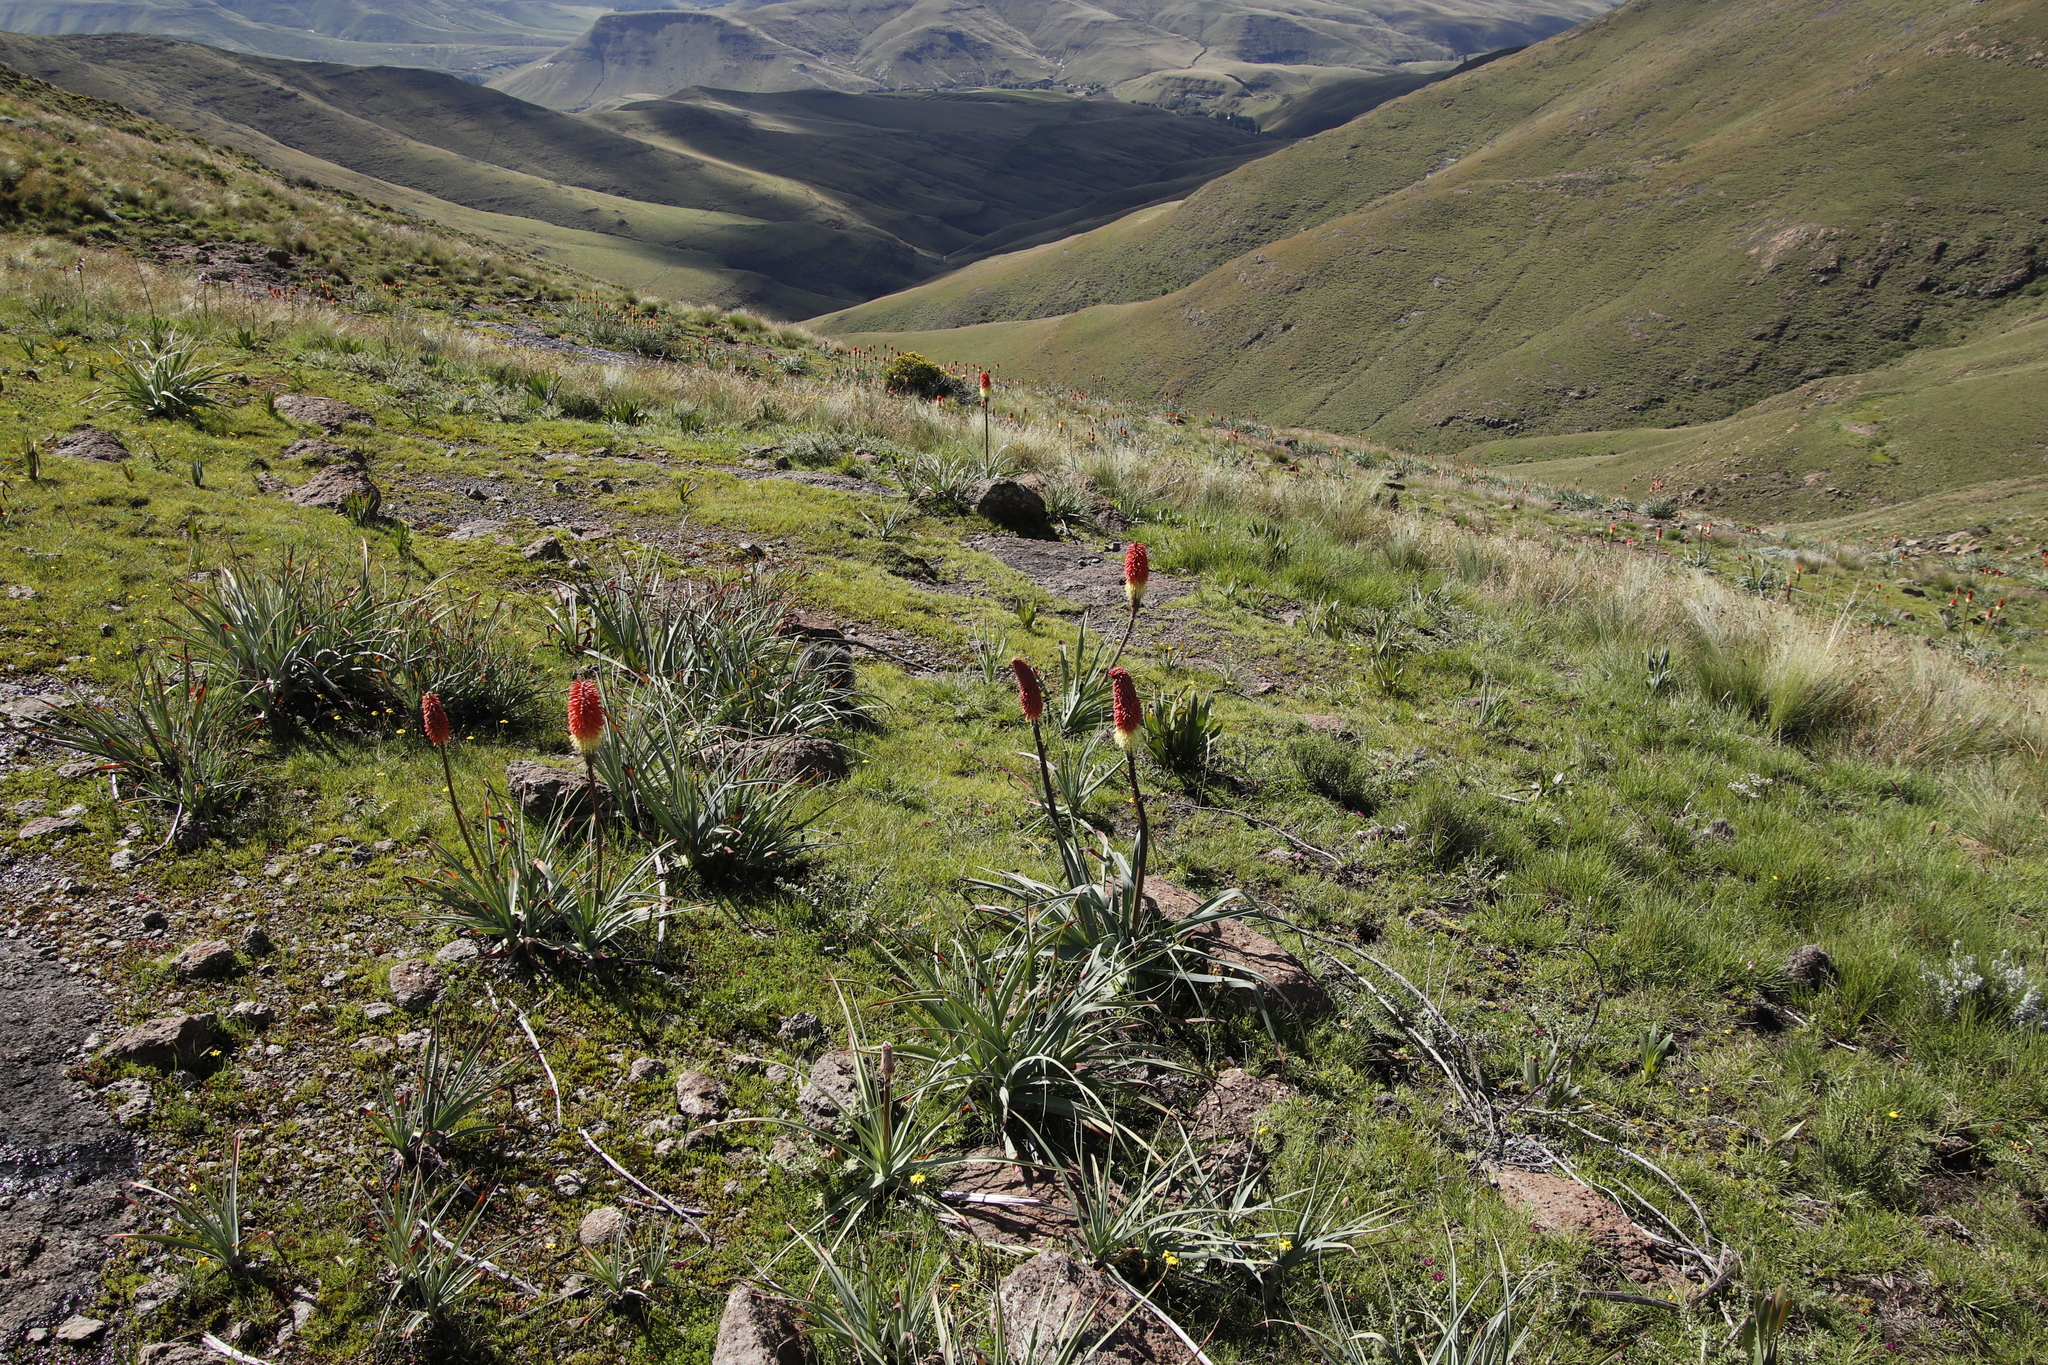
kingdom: Plantae
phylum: Tracheophyta
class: Liliopsida
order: Asparagales
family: Asphodelaceae
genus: Kniphofia
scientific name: Kniphofia caulescens
